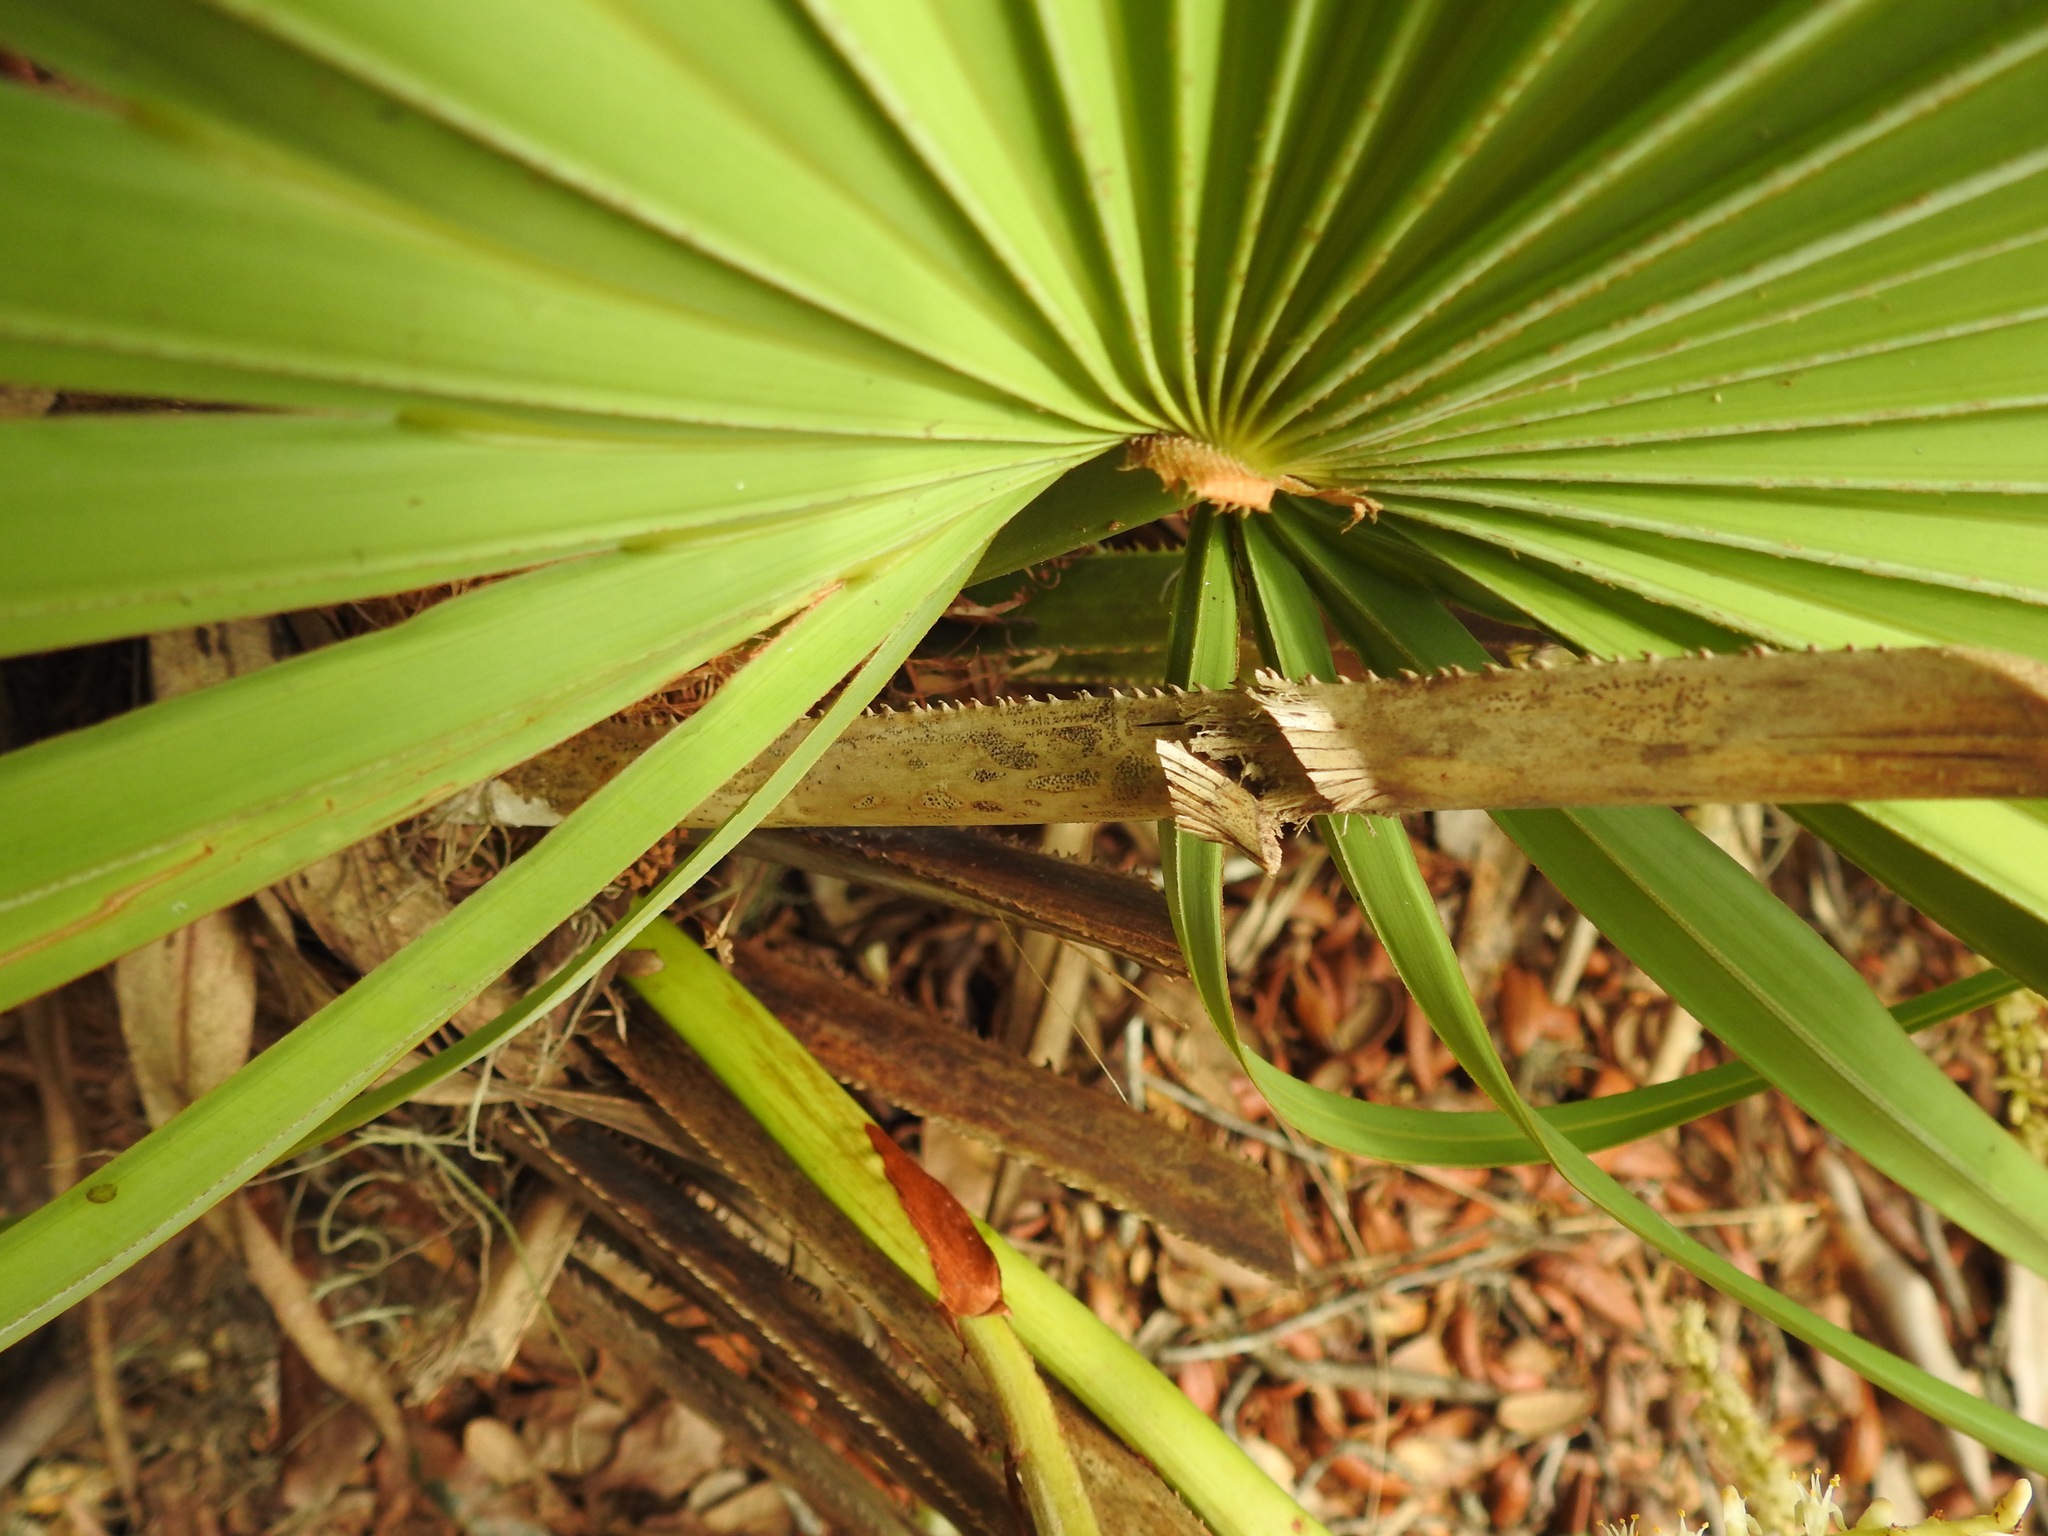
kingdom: Plantae
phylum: Tracheophyta
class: Liliopsida
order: Arecales
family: Arecaceae
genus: Serenoa
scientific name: Serenoa repens
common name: Saw-palmetto
